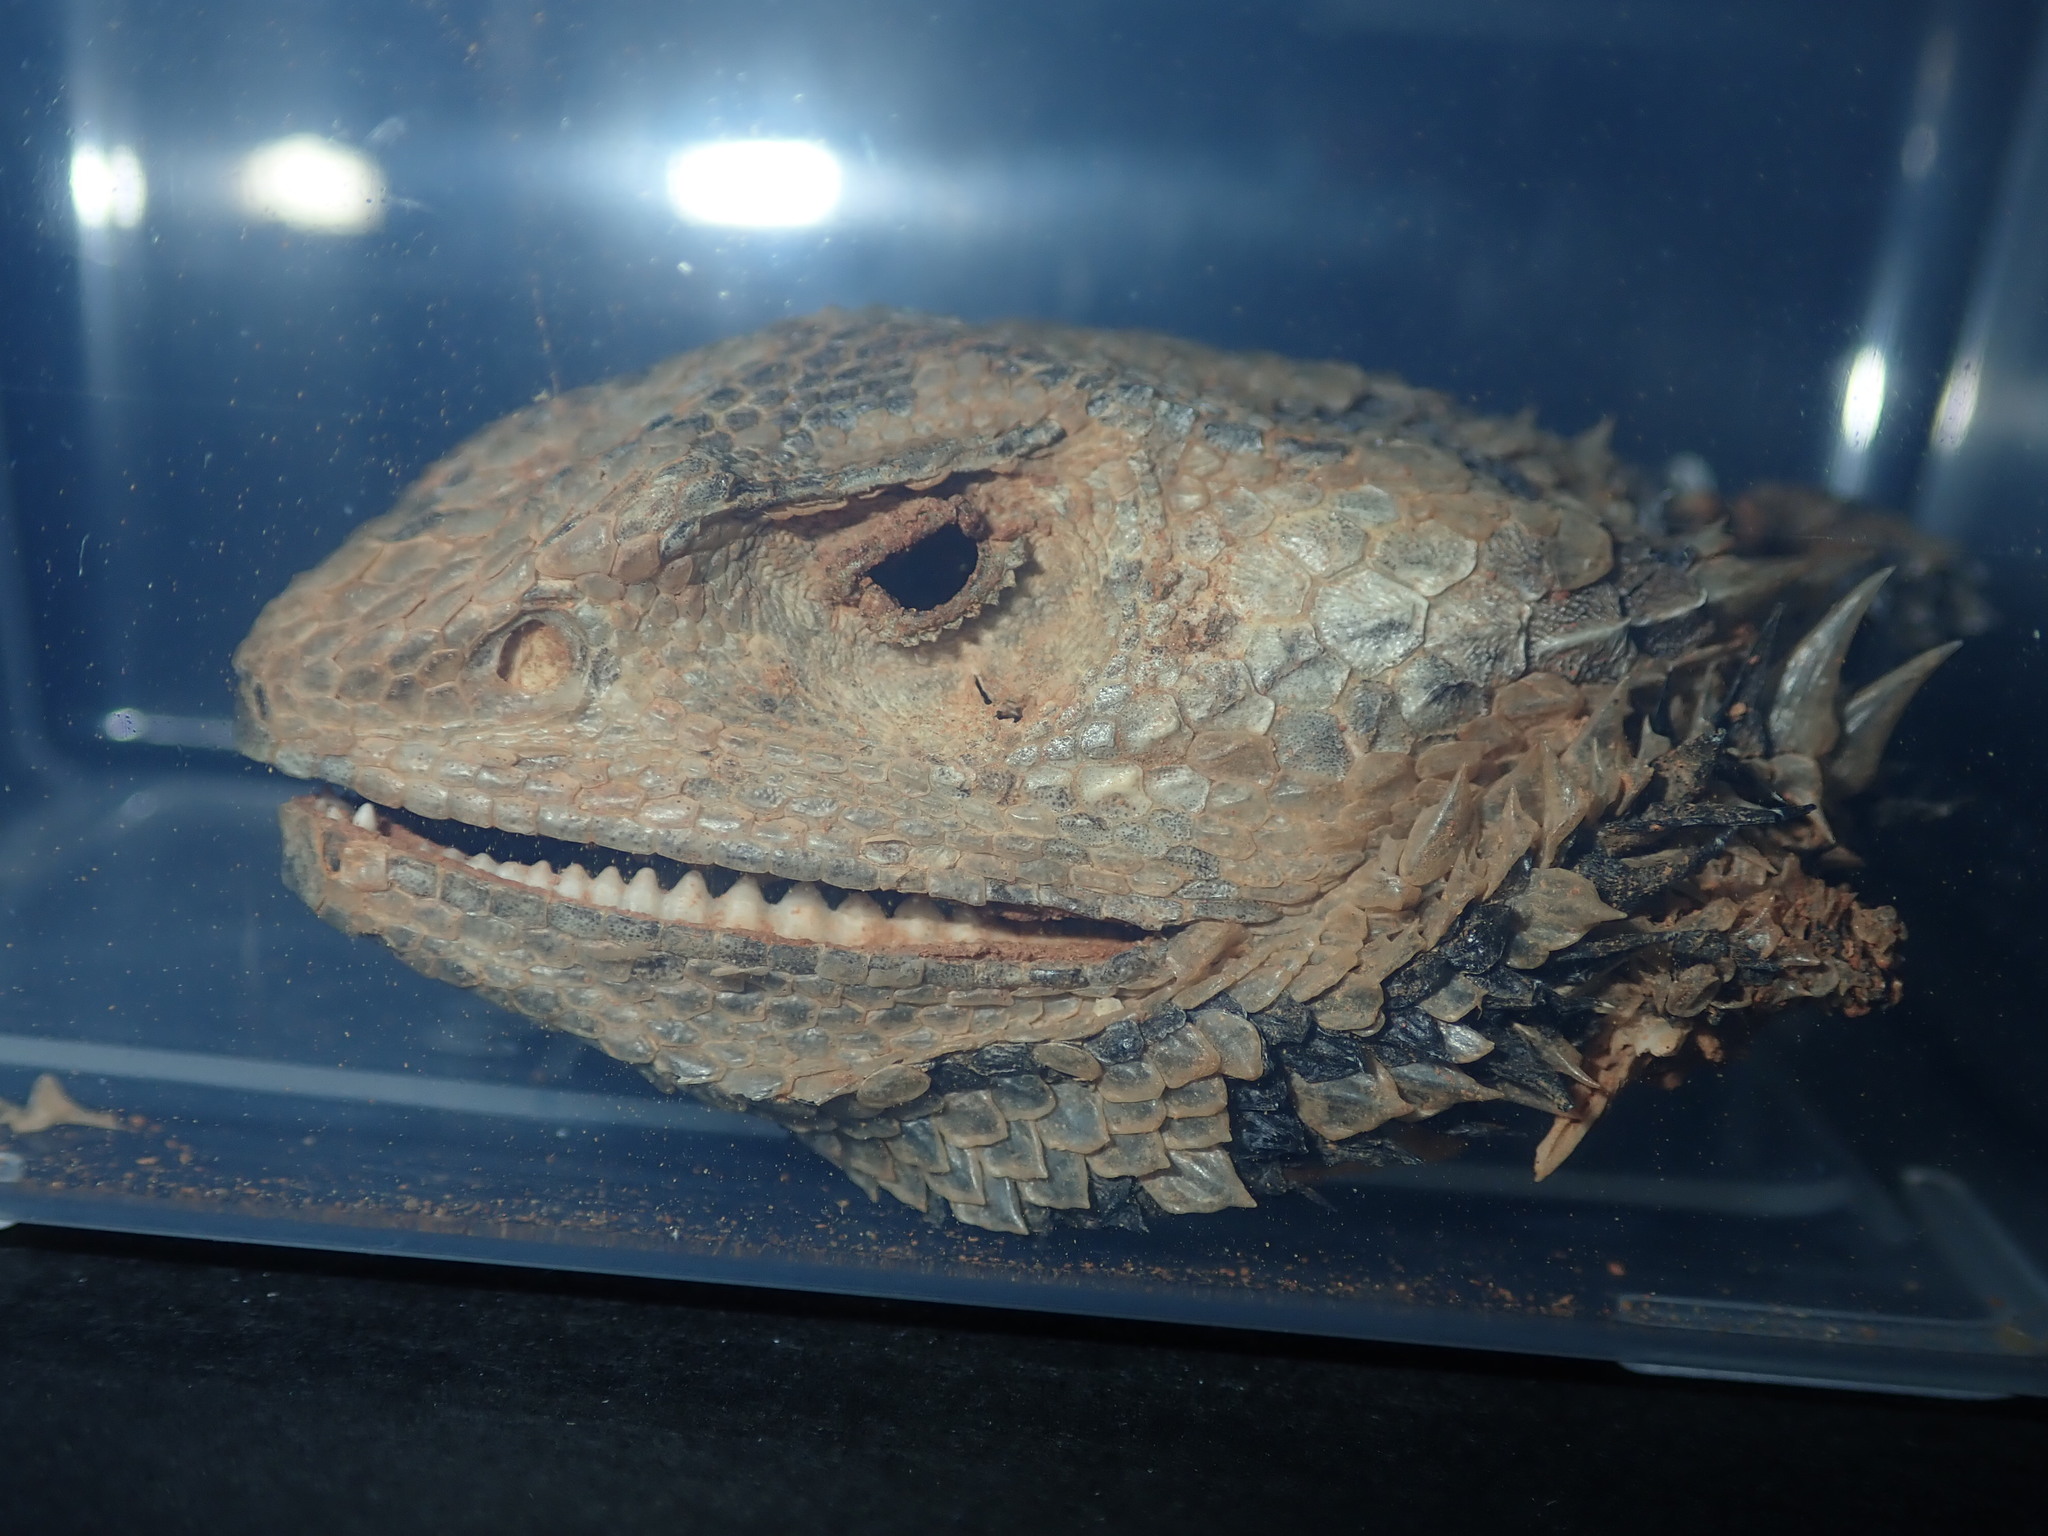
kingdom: Animalia
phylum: Chordata
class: Squamata
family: Agamidae
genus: Pogona
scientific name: Pogona vitticeps
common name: Central bearded dragon
